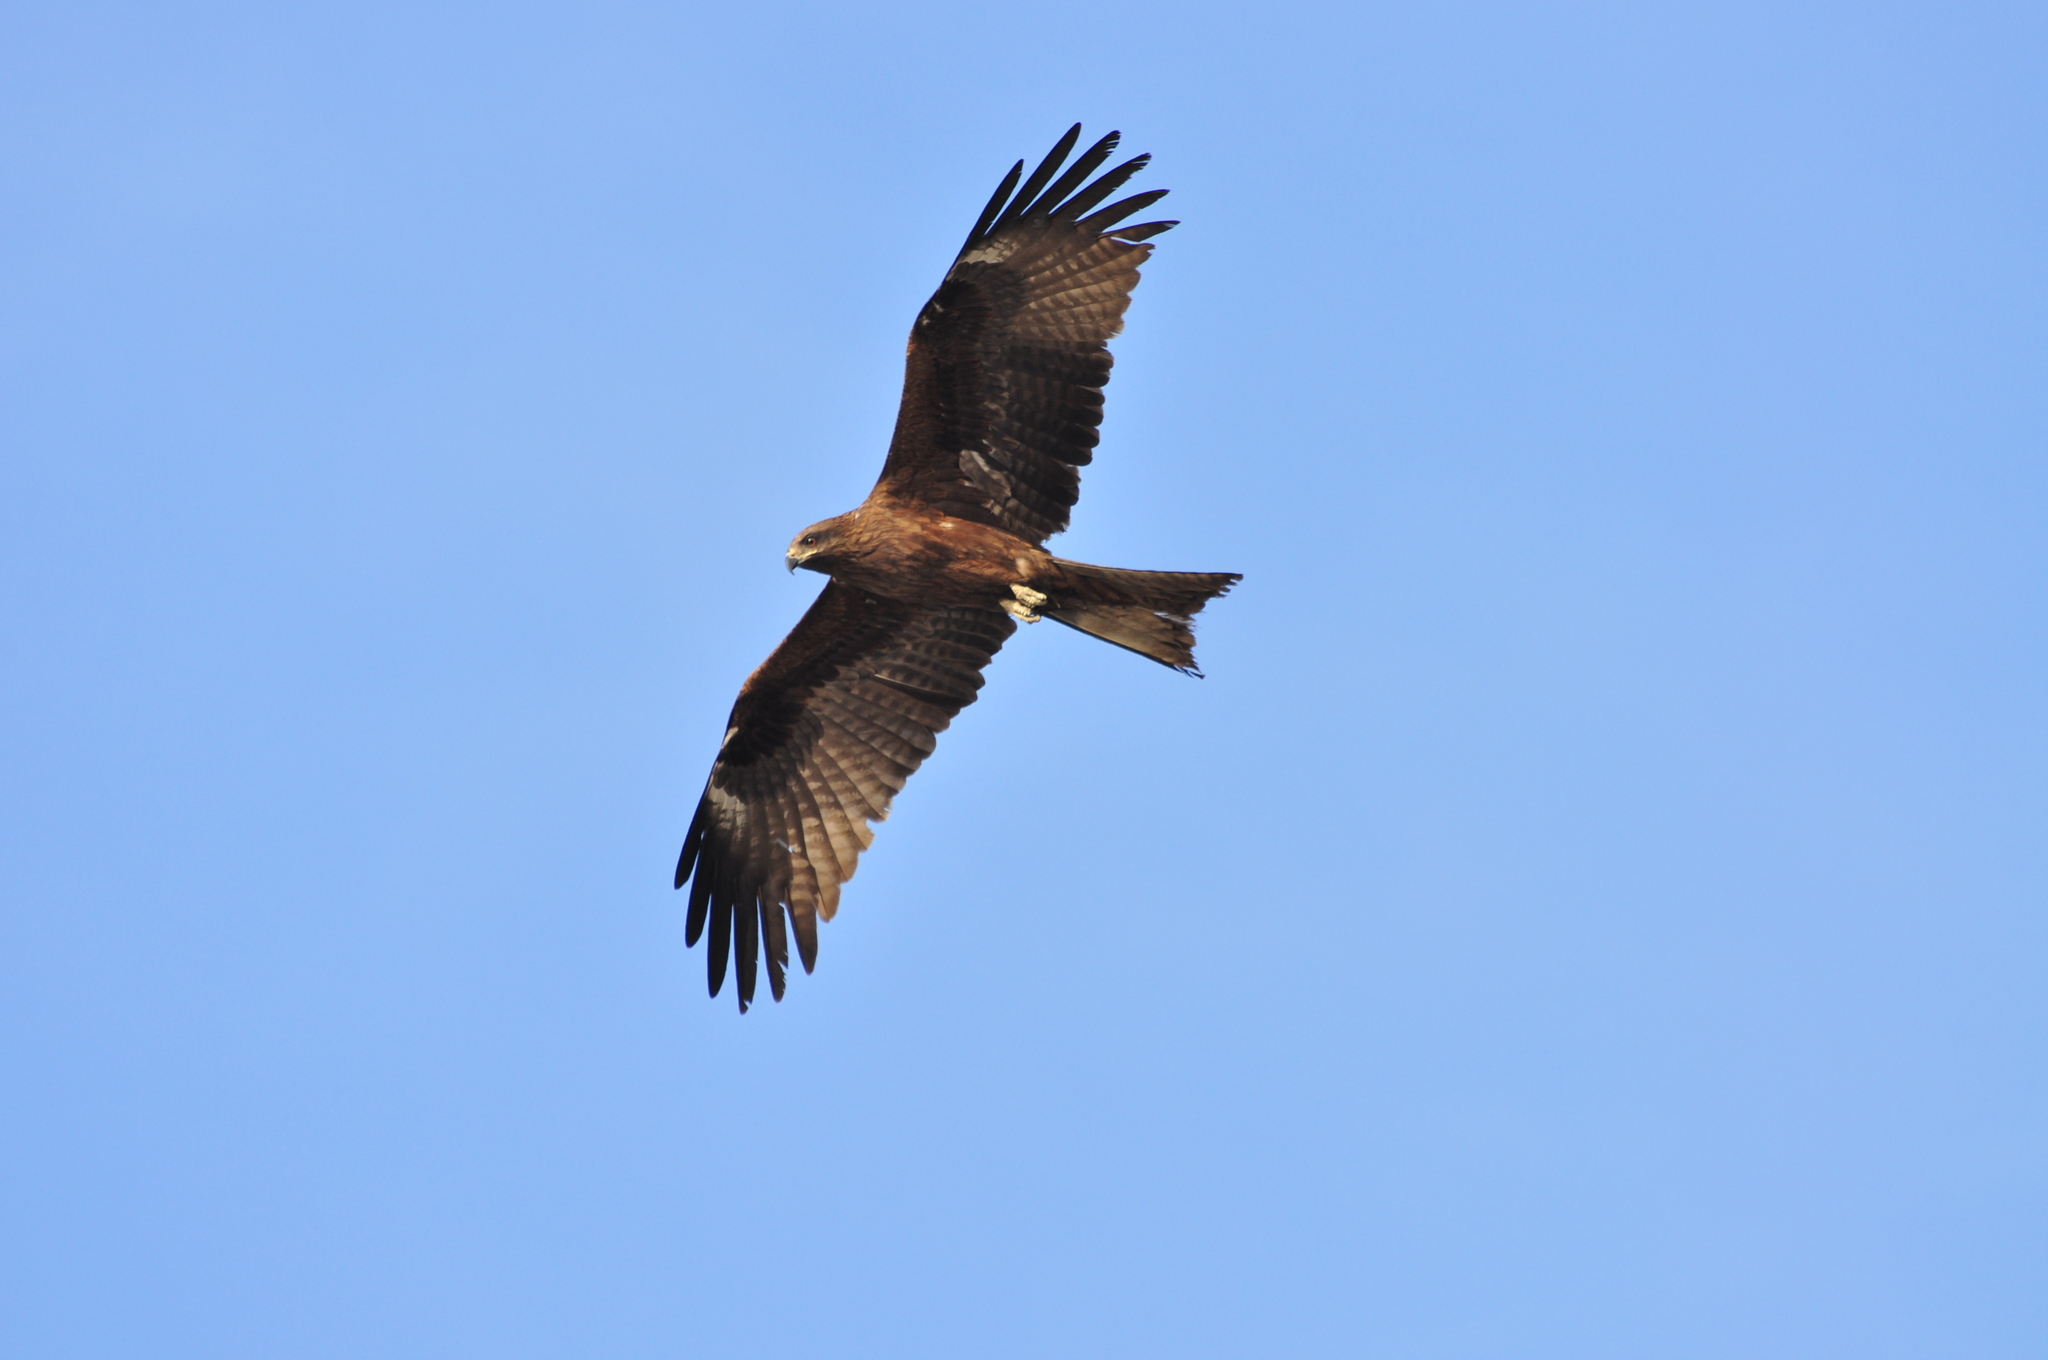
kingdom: Animalia
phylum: Chordata
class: Aves
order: Accipitriformes
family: Accipitridae
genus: Milvus
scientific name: Milvus migrans
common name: Black kite
